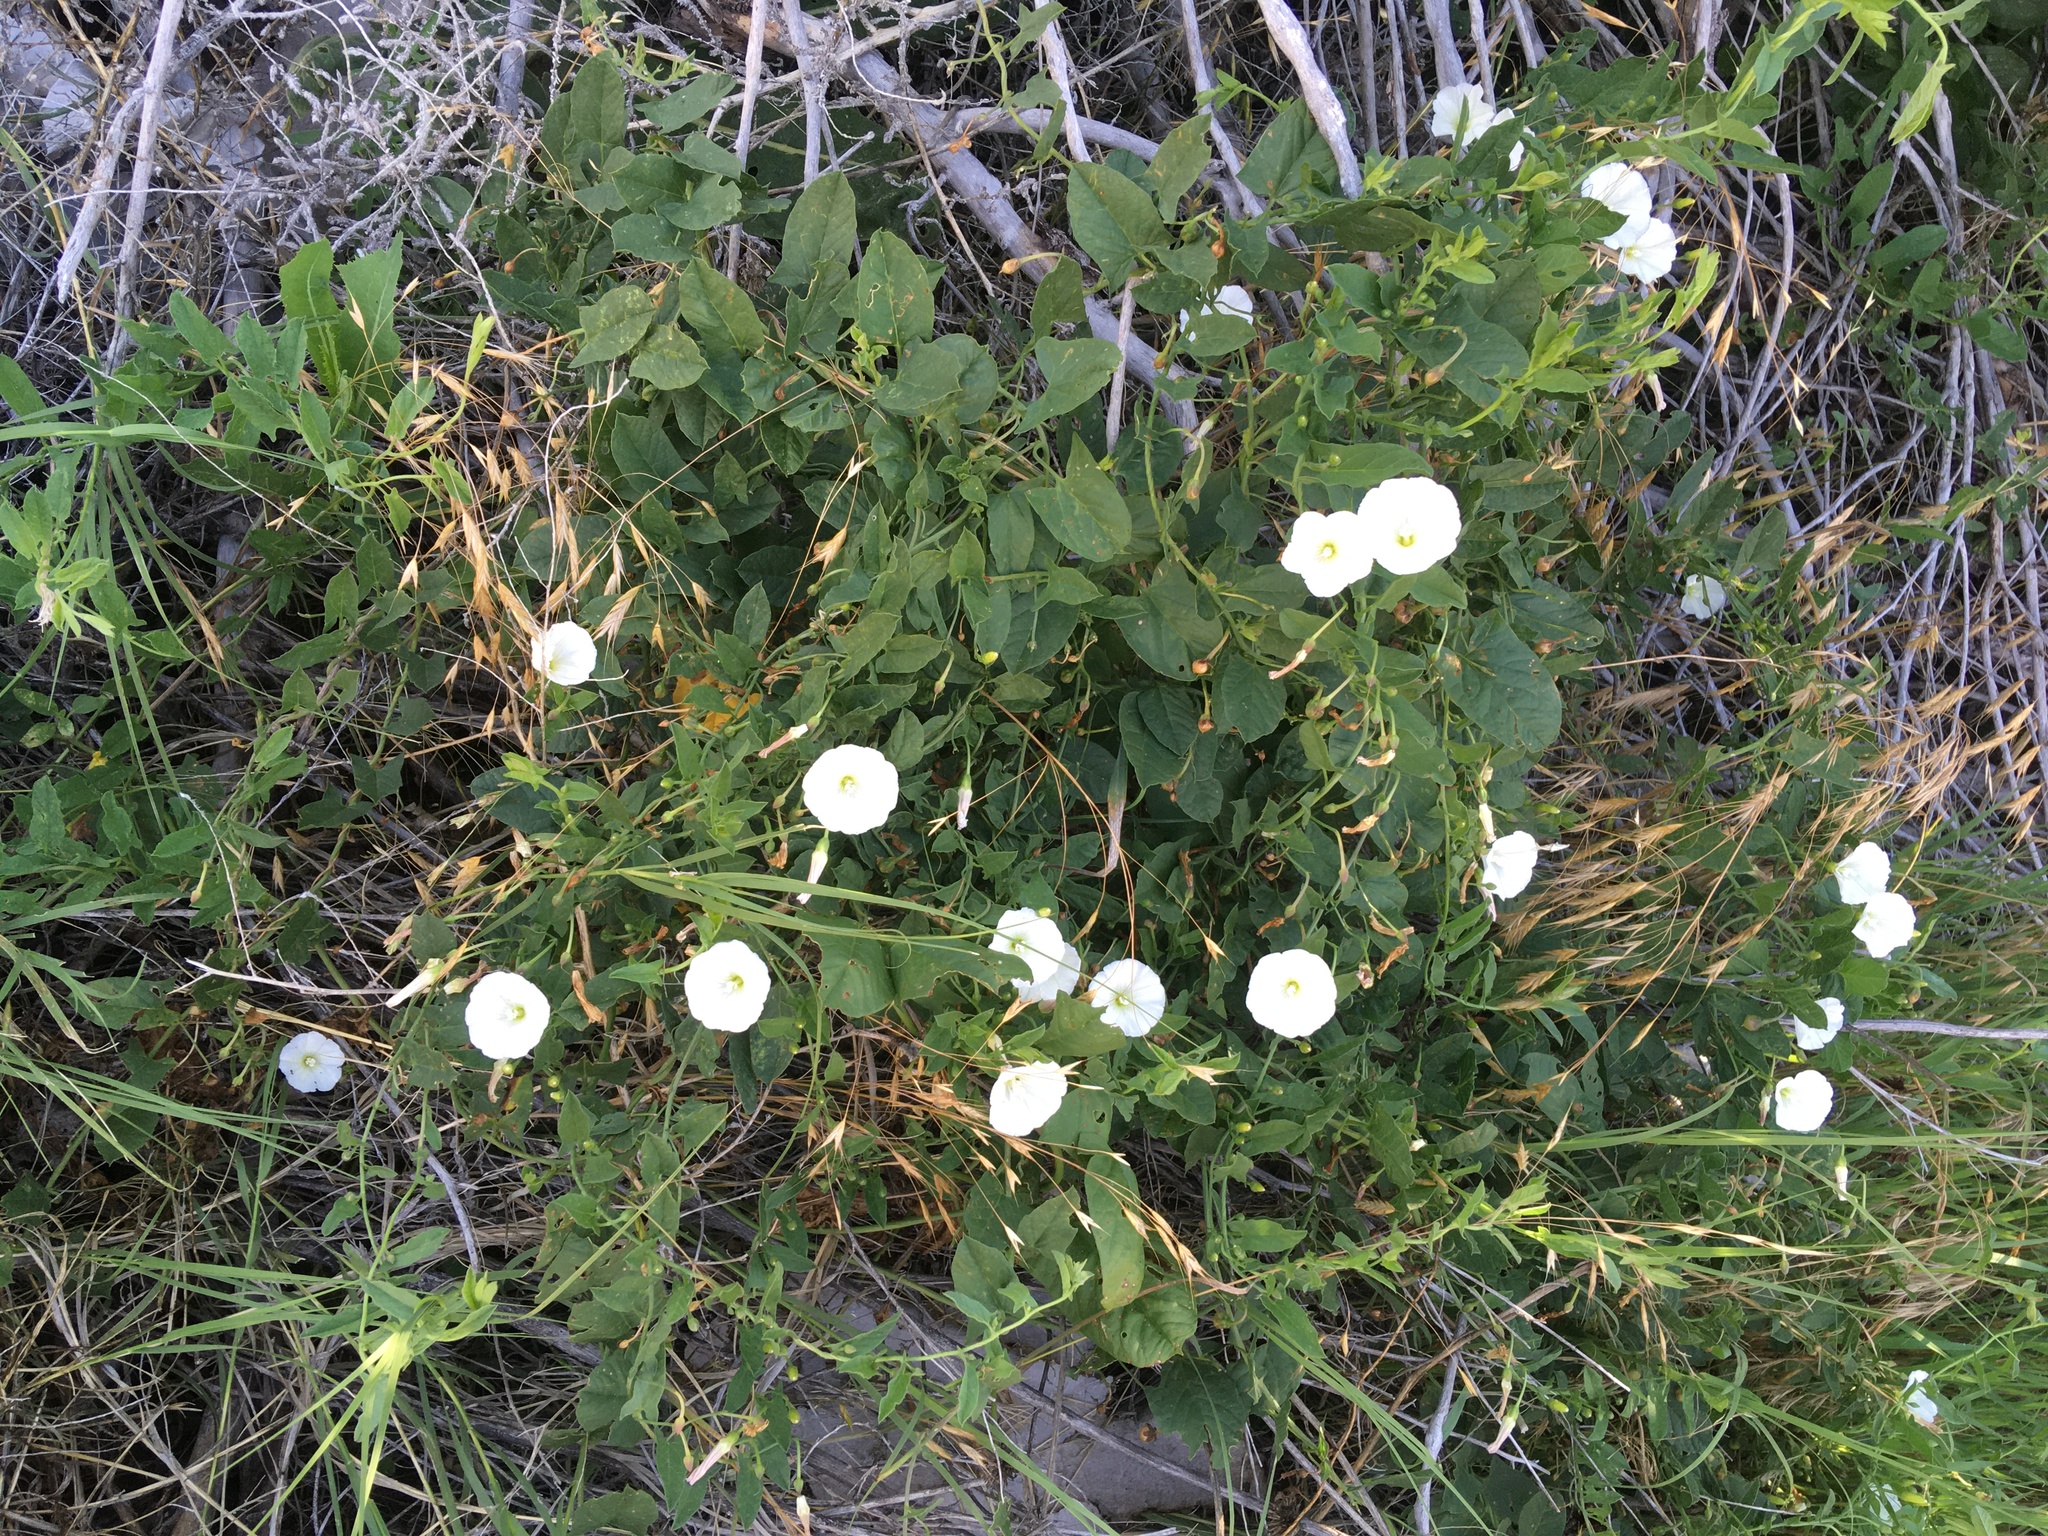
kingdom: Plantae
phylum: Tracheophyta
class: Magnoliopsida
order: Solanales
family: Convolvulaceae
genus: Convolvulus
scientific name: Convolvulus arvensis
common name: Field bindweed
